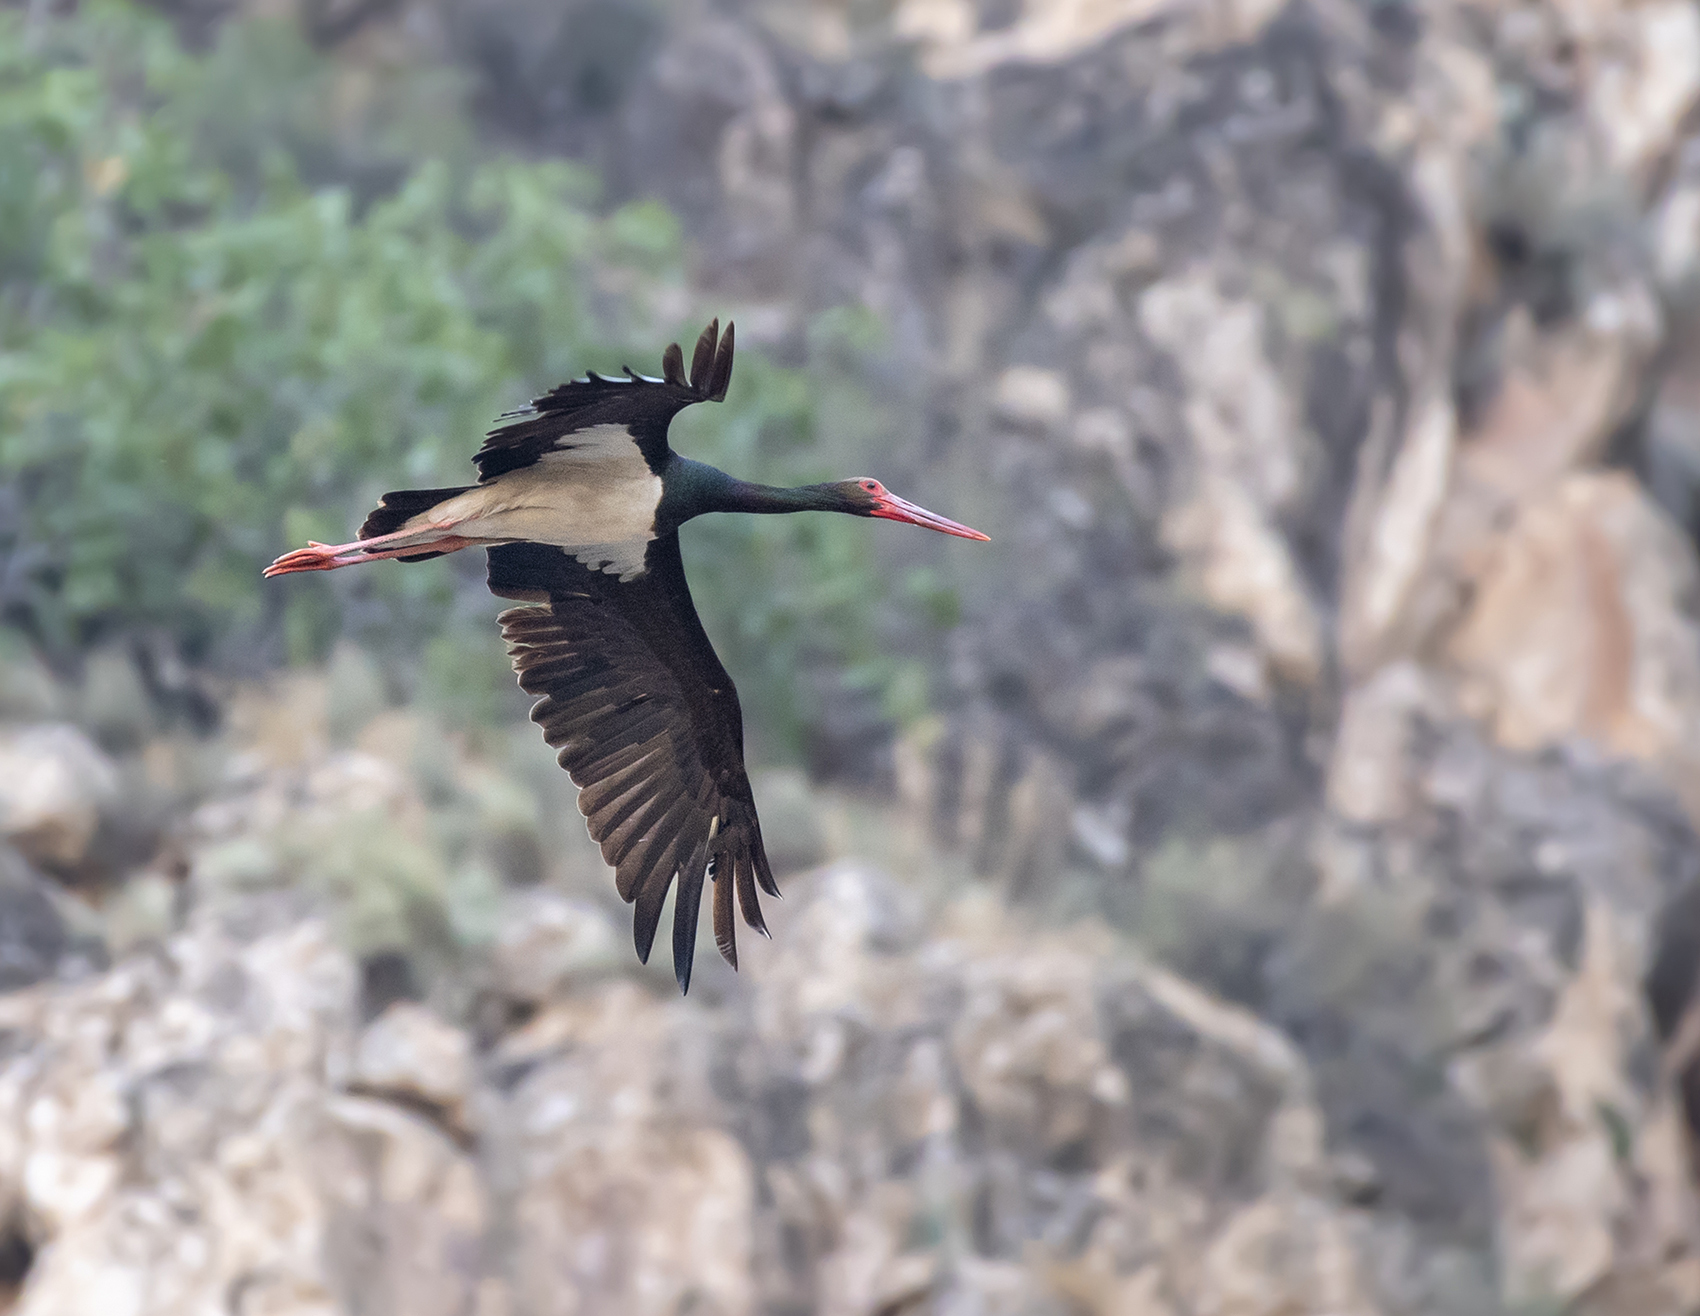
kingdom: Animalia
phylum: Chordata
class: Aves
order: Ciconiiformes
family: Ciconiidae
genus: Ciconia
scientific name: Ciconia nigra
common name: Black stork
